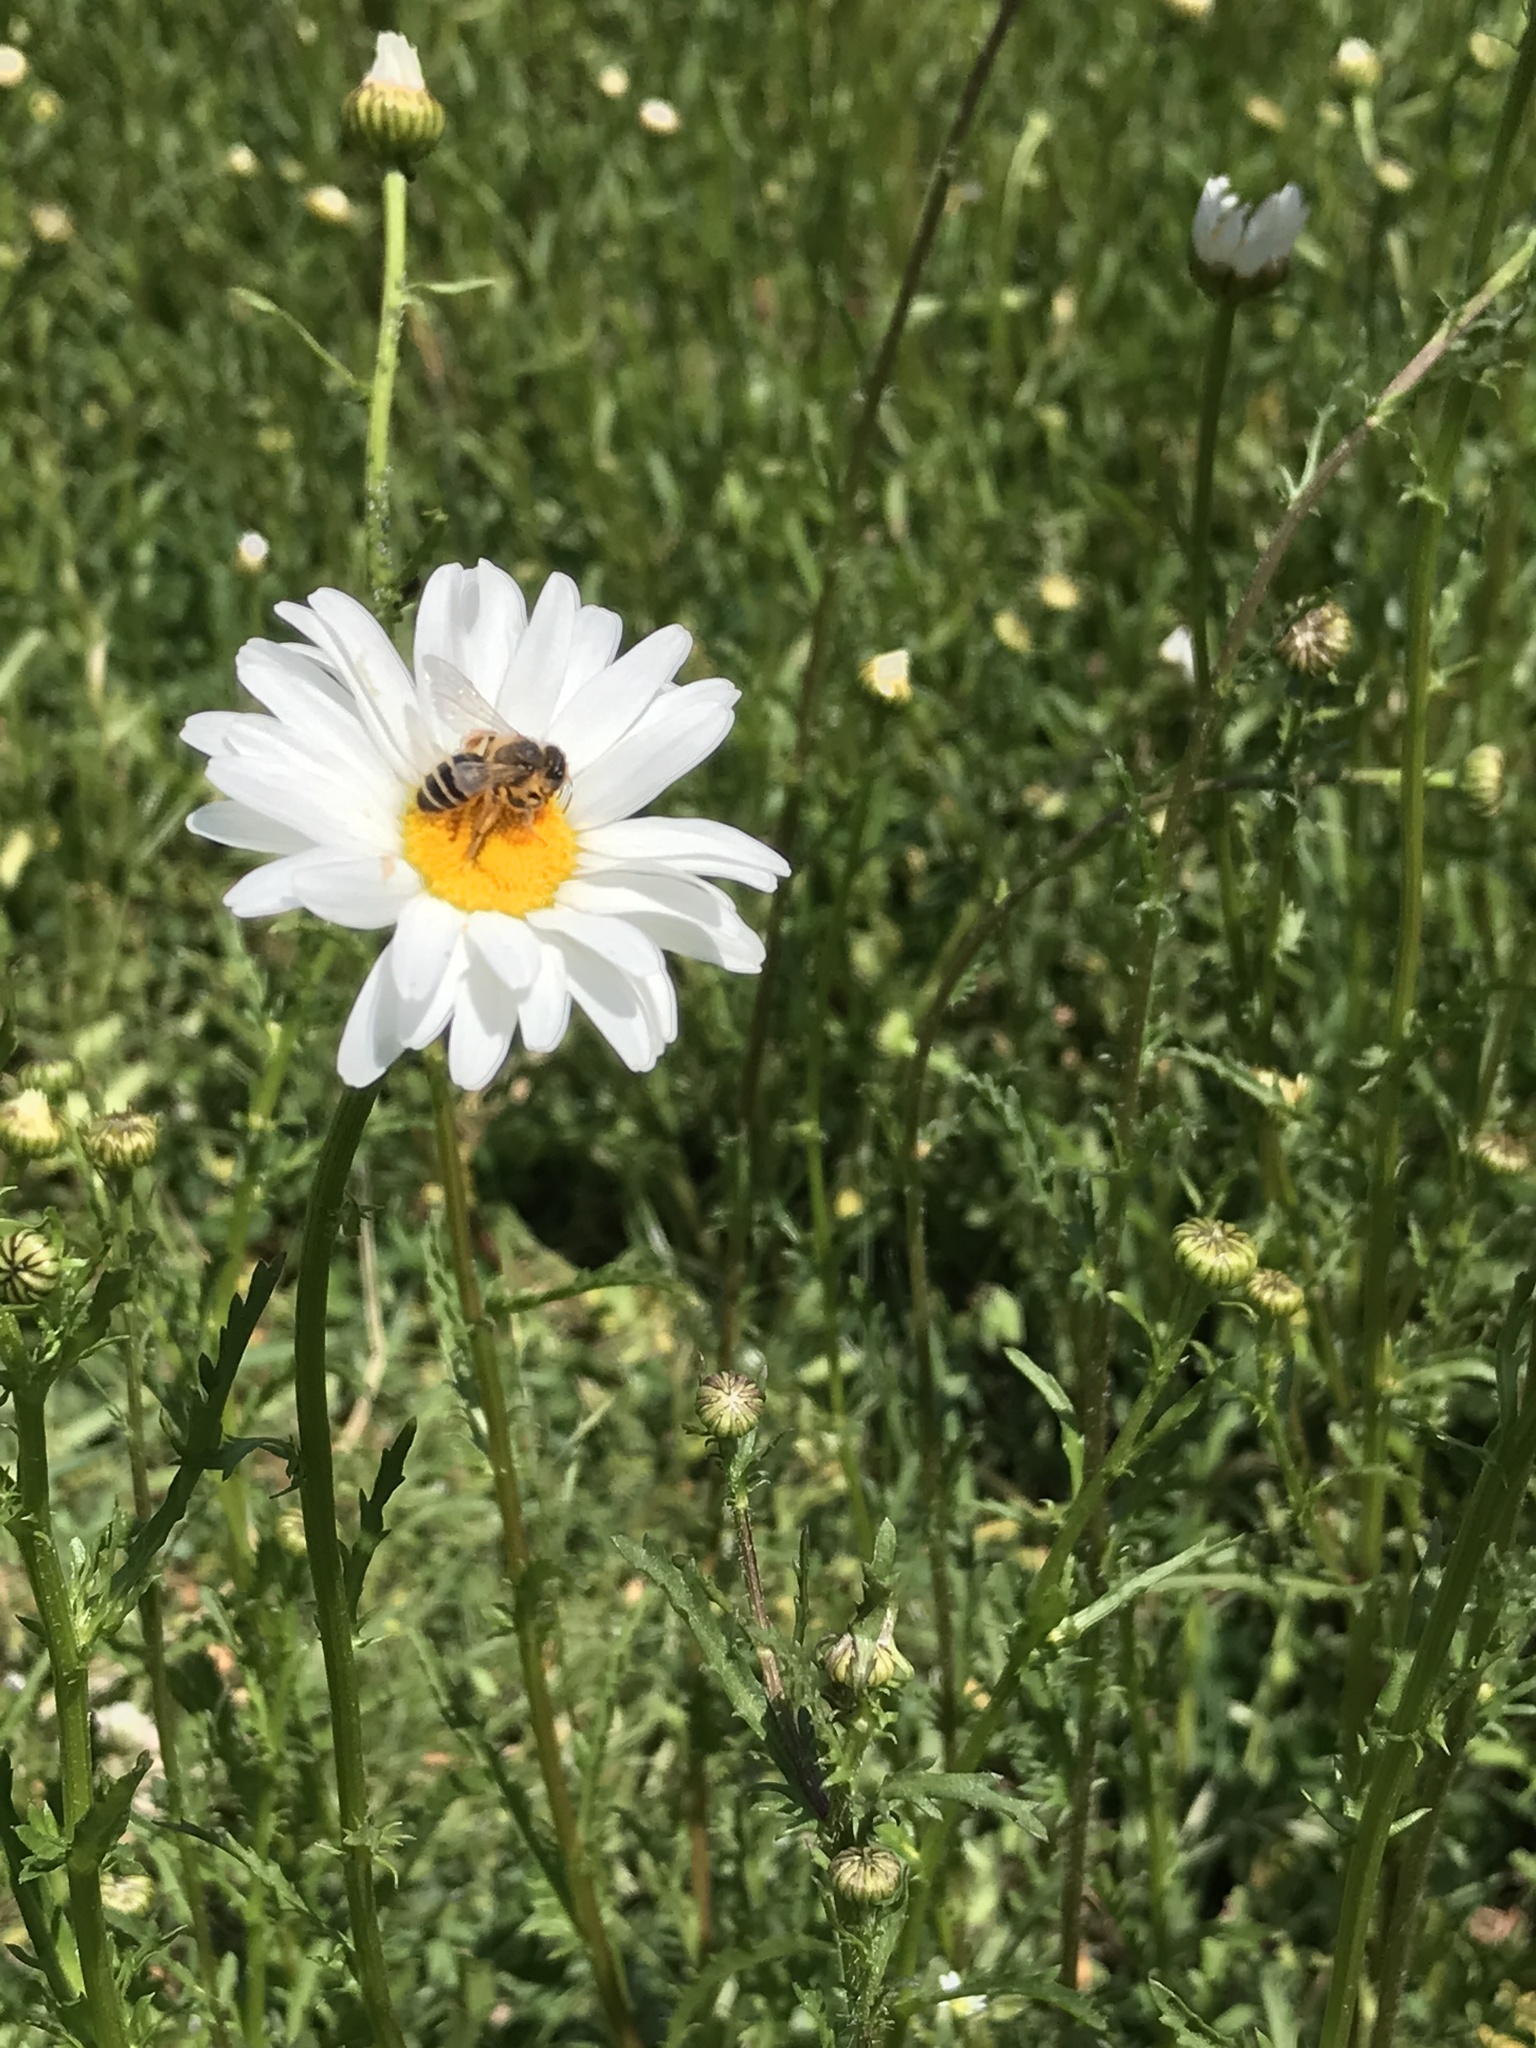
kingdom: Plantae
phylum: Tracheophyta
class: Magnoliopsida
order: Asterales
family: Asteraceae
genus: Leucanthemum
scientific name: Leucanthemum vulgare
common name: Oxeye daisy
